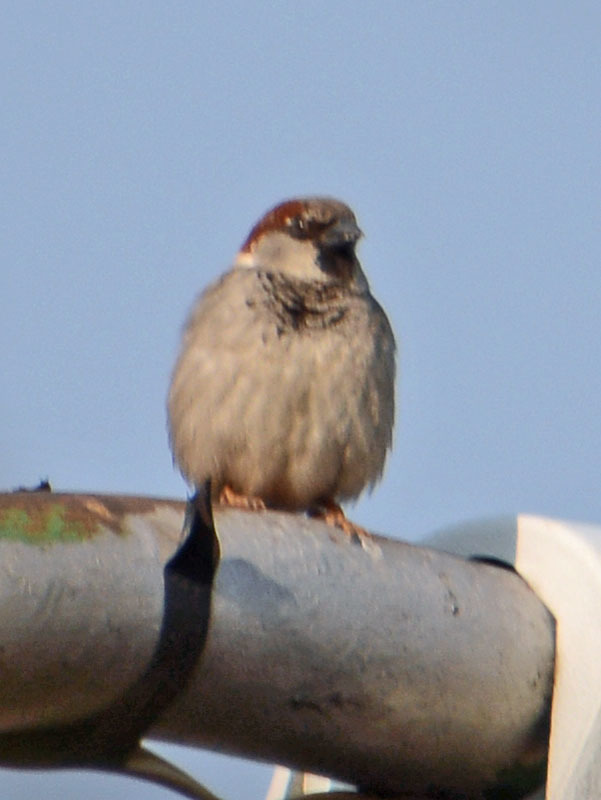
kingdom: Animalia
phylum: Chordata
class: Aves
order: Passeriformes
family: Passeridae
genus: Passer
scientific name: Passer domesticus
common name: House sparrow
